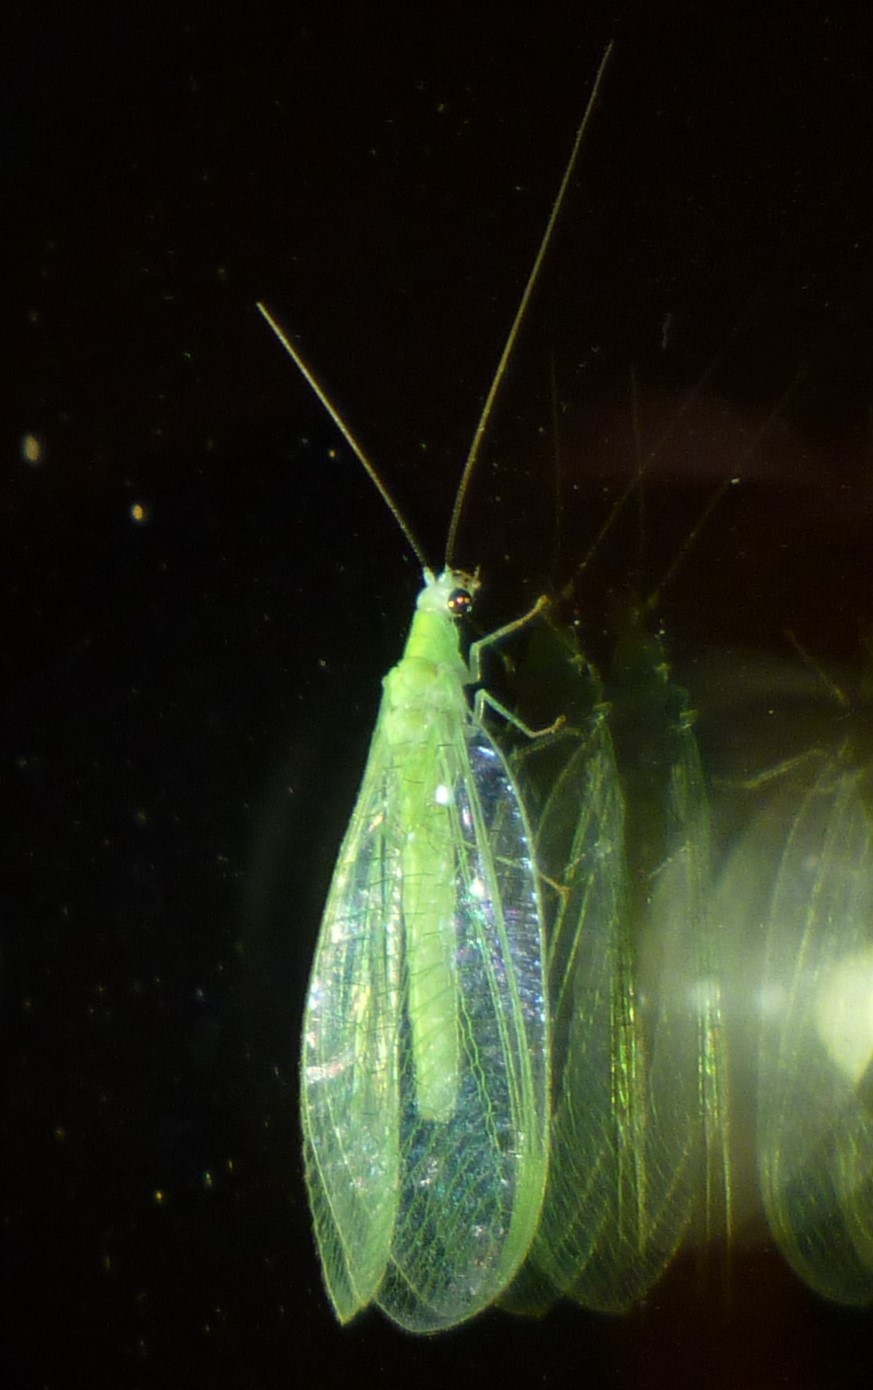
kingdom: Animalia
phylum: Arthropoda
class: Insecta
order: Neuroptera
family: Chrysopidae
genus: Chrysopa
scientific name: Chrysopa nigricornis
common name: Black-horned green lacewing
